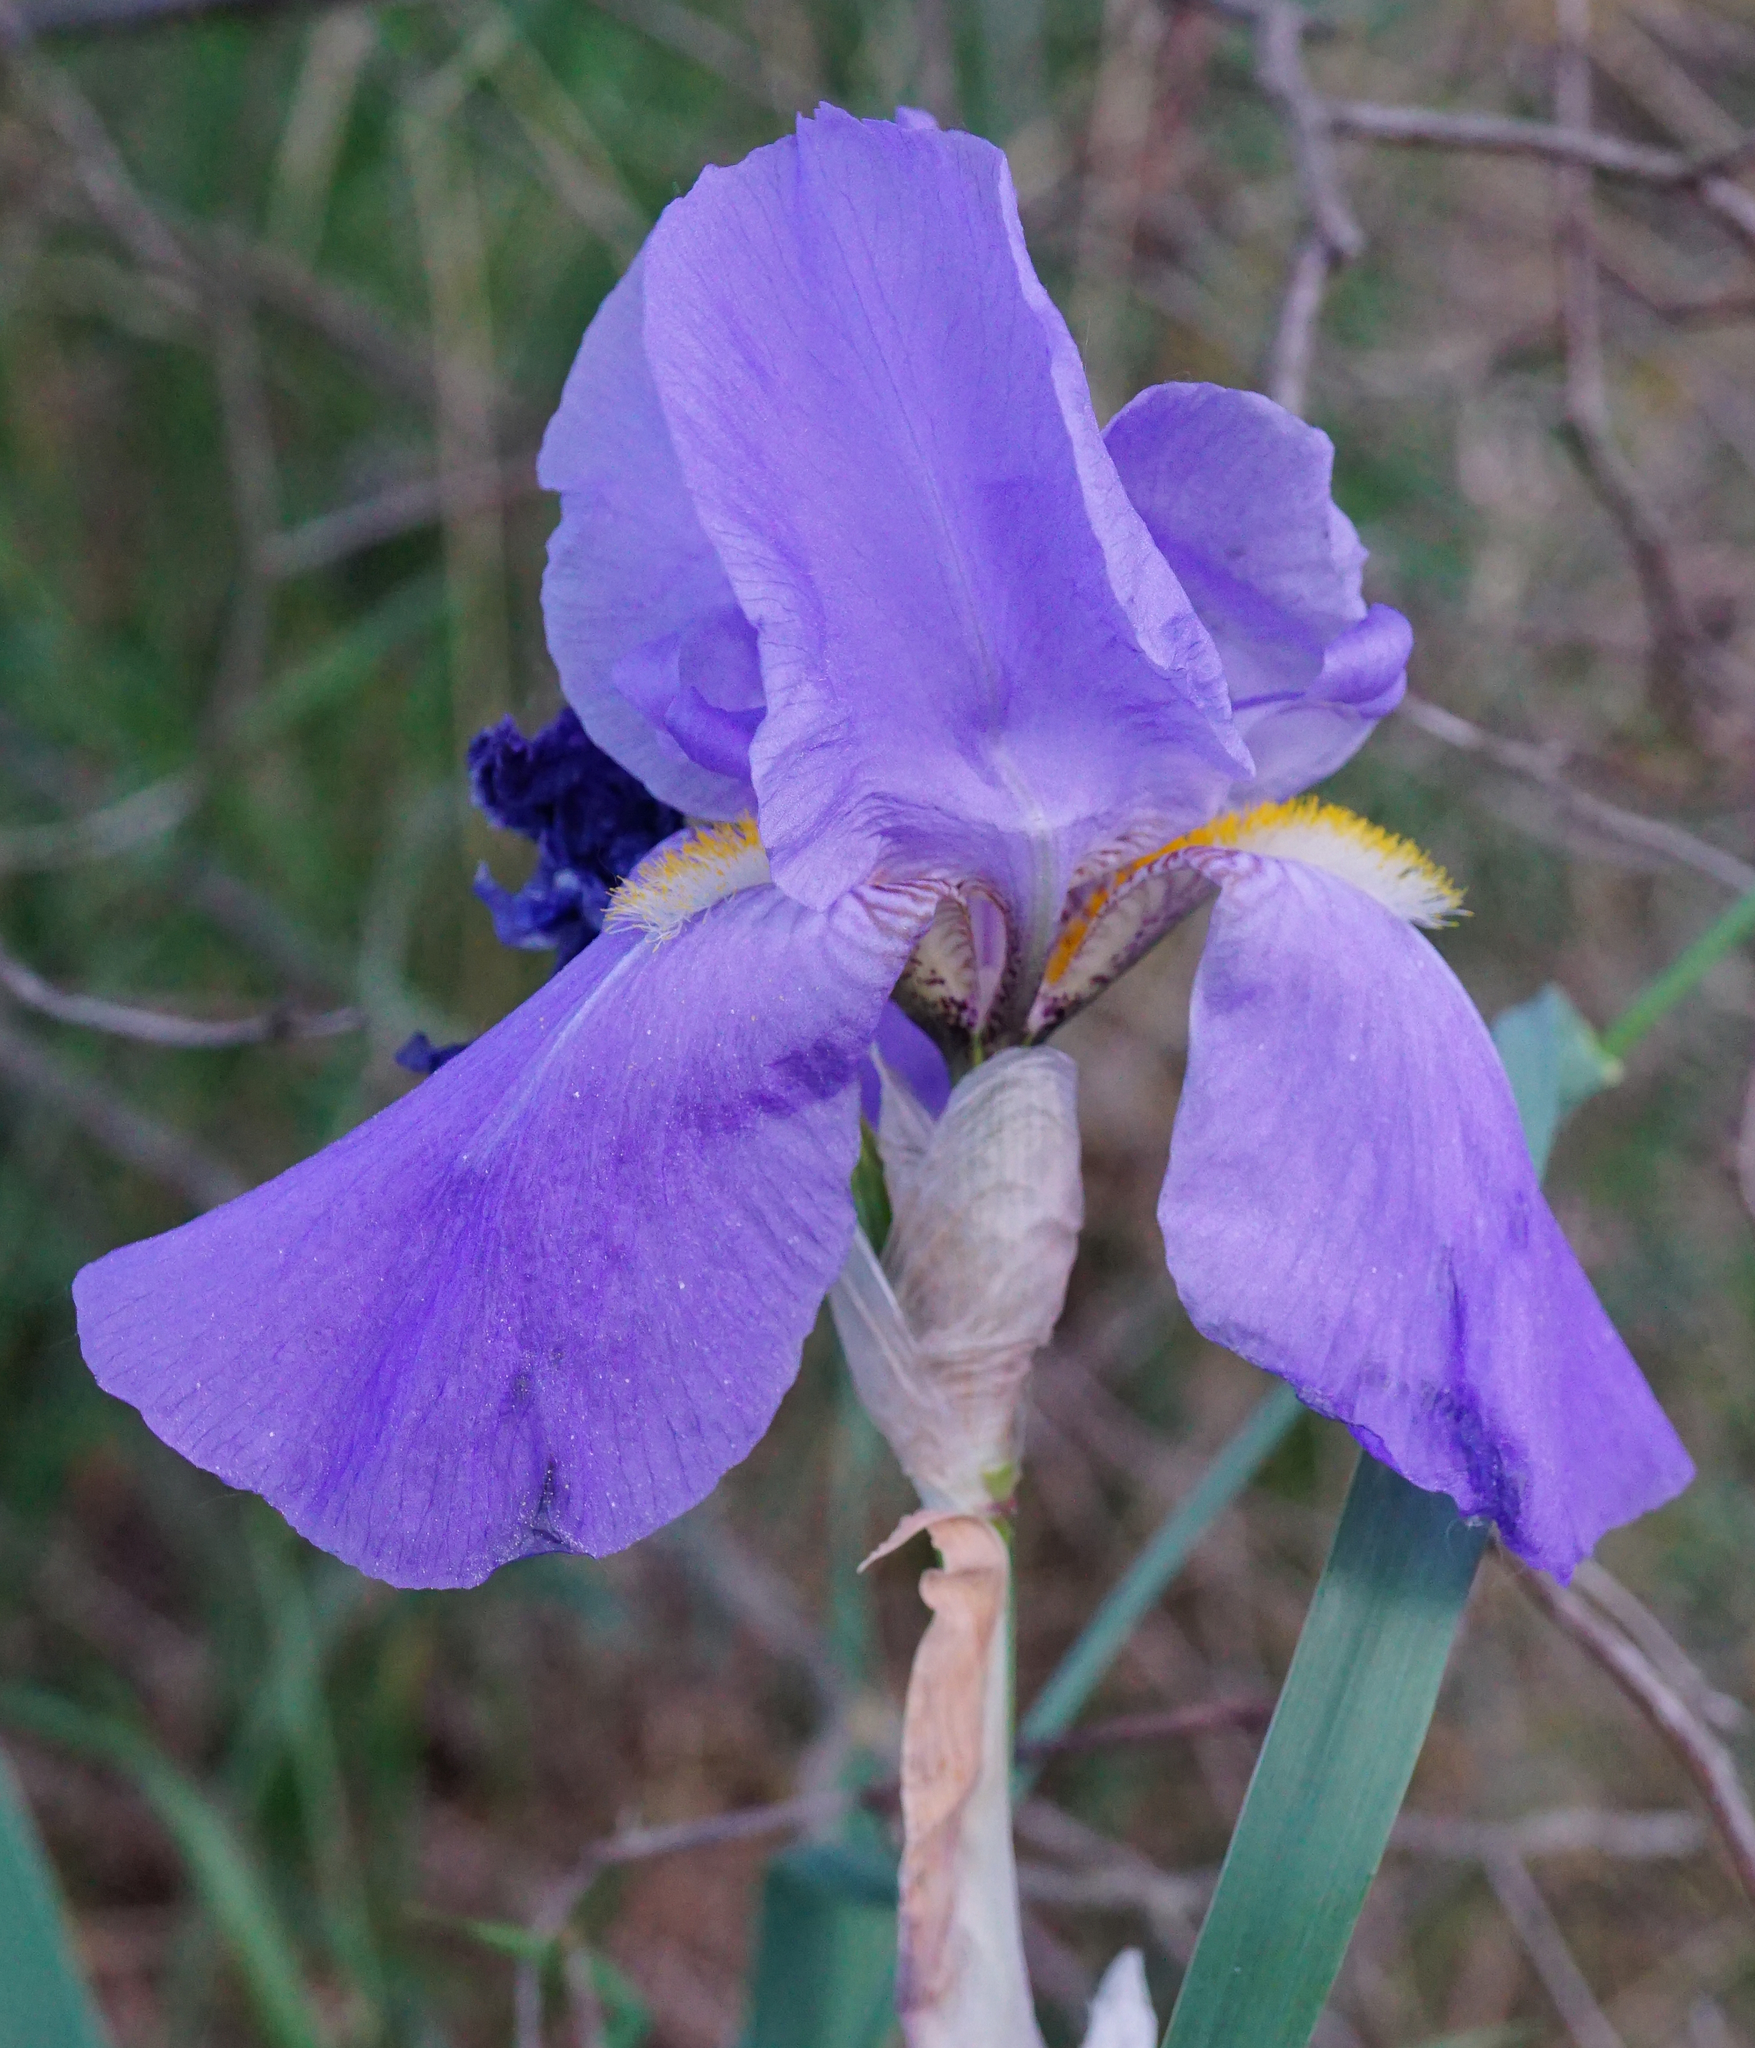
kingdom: Plantae
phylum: Tracheophyta
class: Liliopsida
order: Asparagales
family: Iridaceae
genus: Iris
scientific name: Iris germanica
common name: German iris
